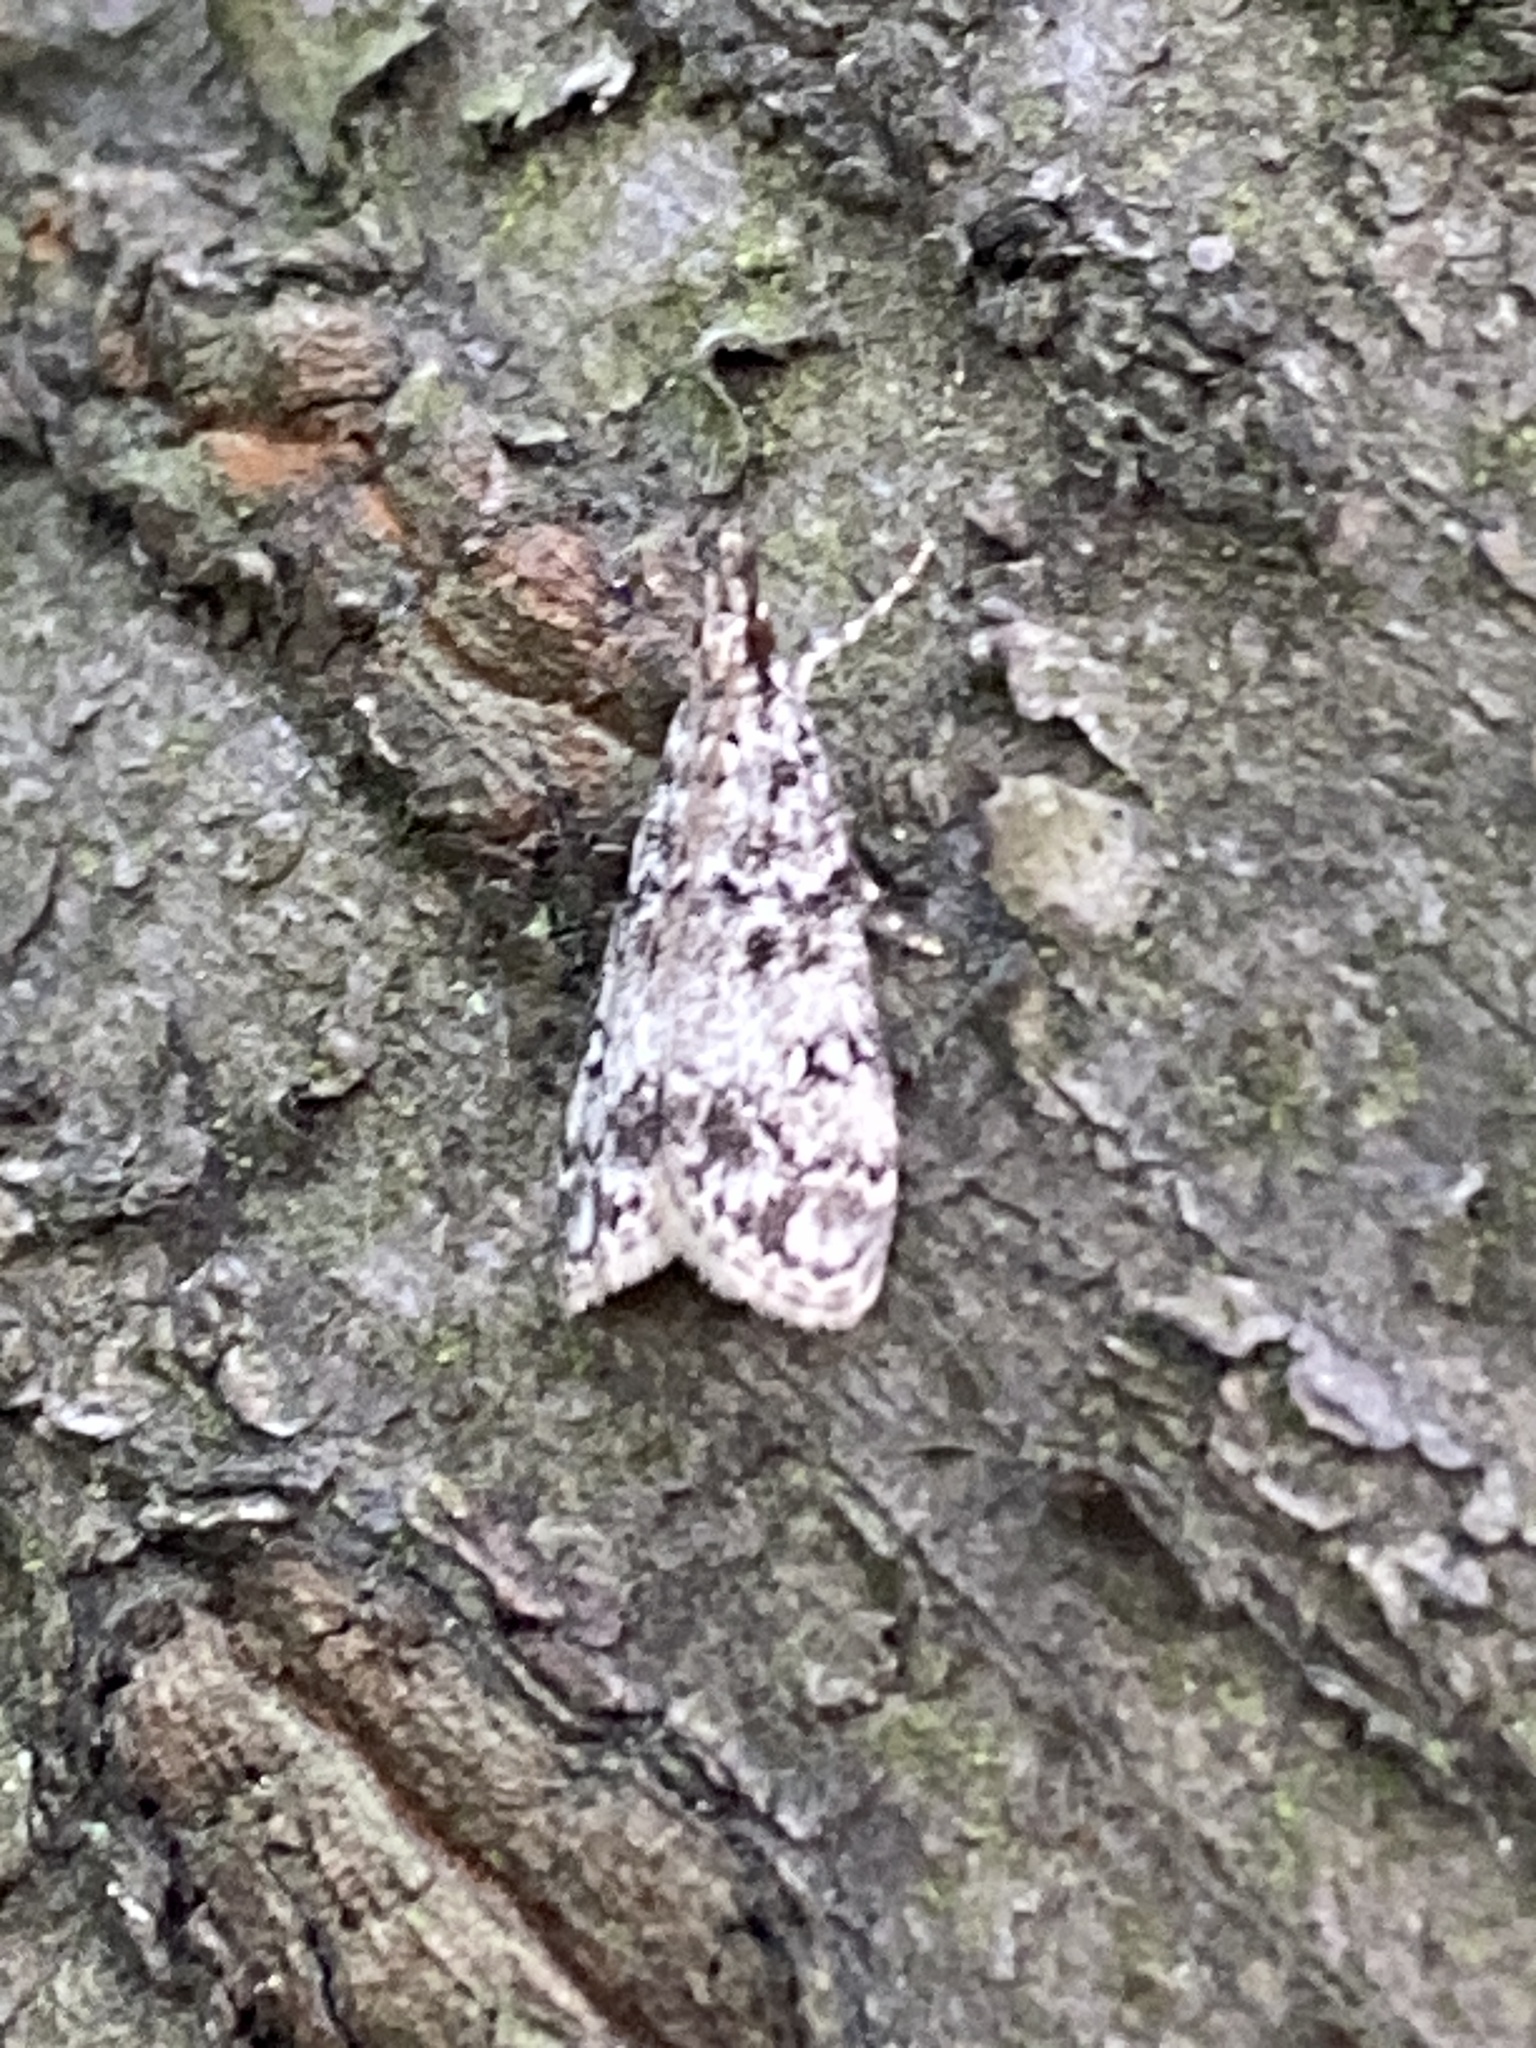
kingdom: Animalia
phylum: Arthropoda
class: Insecta
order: Lepidoptera
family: Crambidae
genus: Eudonia
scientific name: Eudonia lacustrata
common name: Little grey
